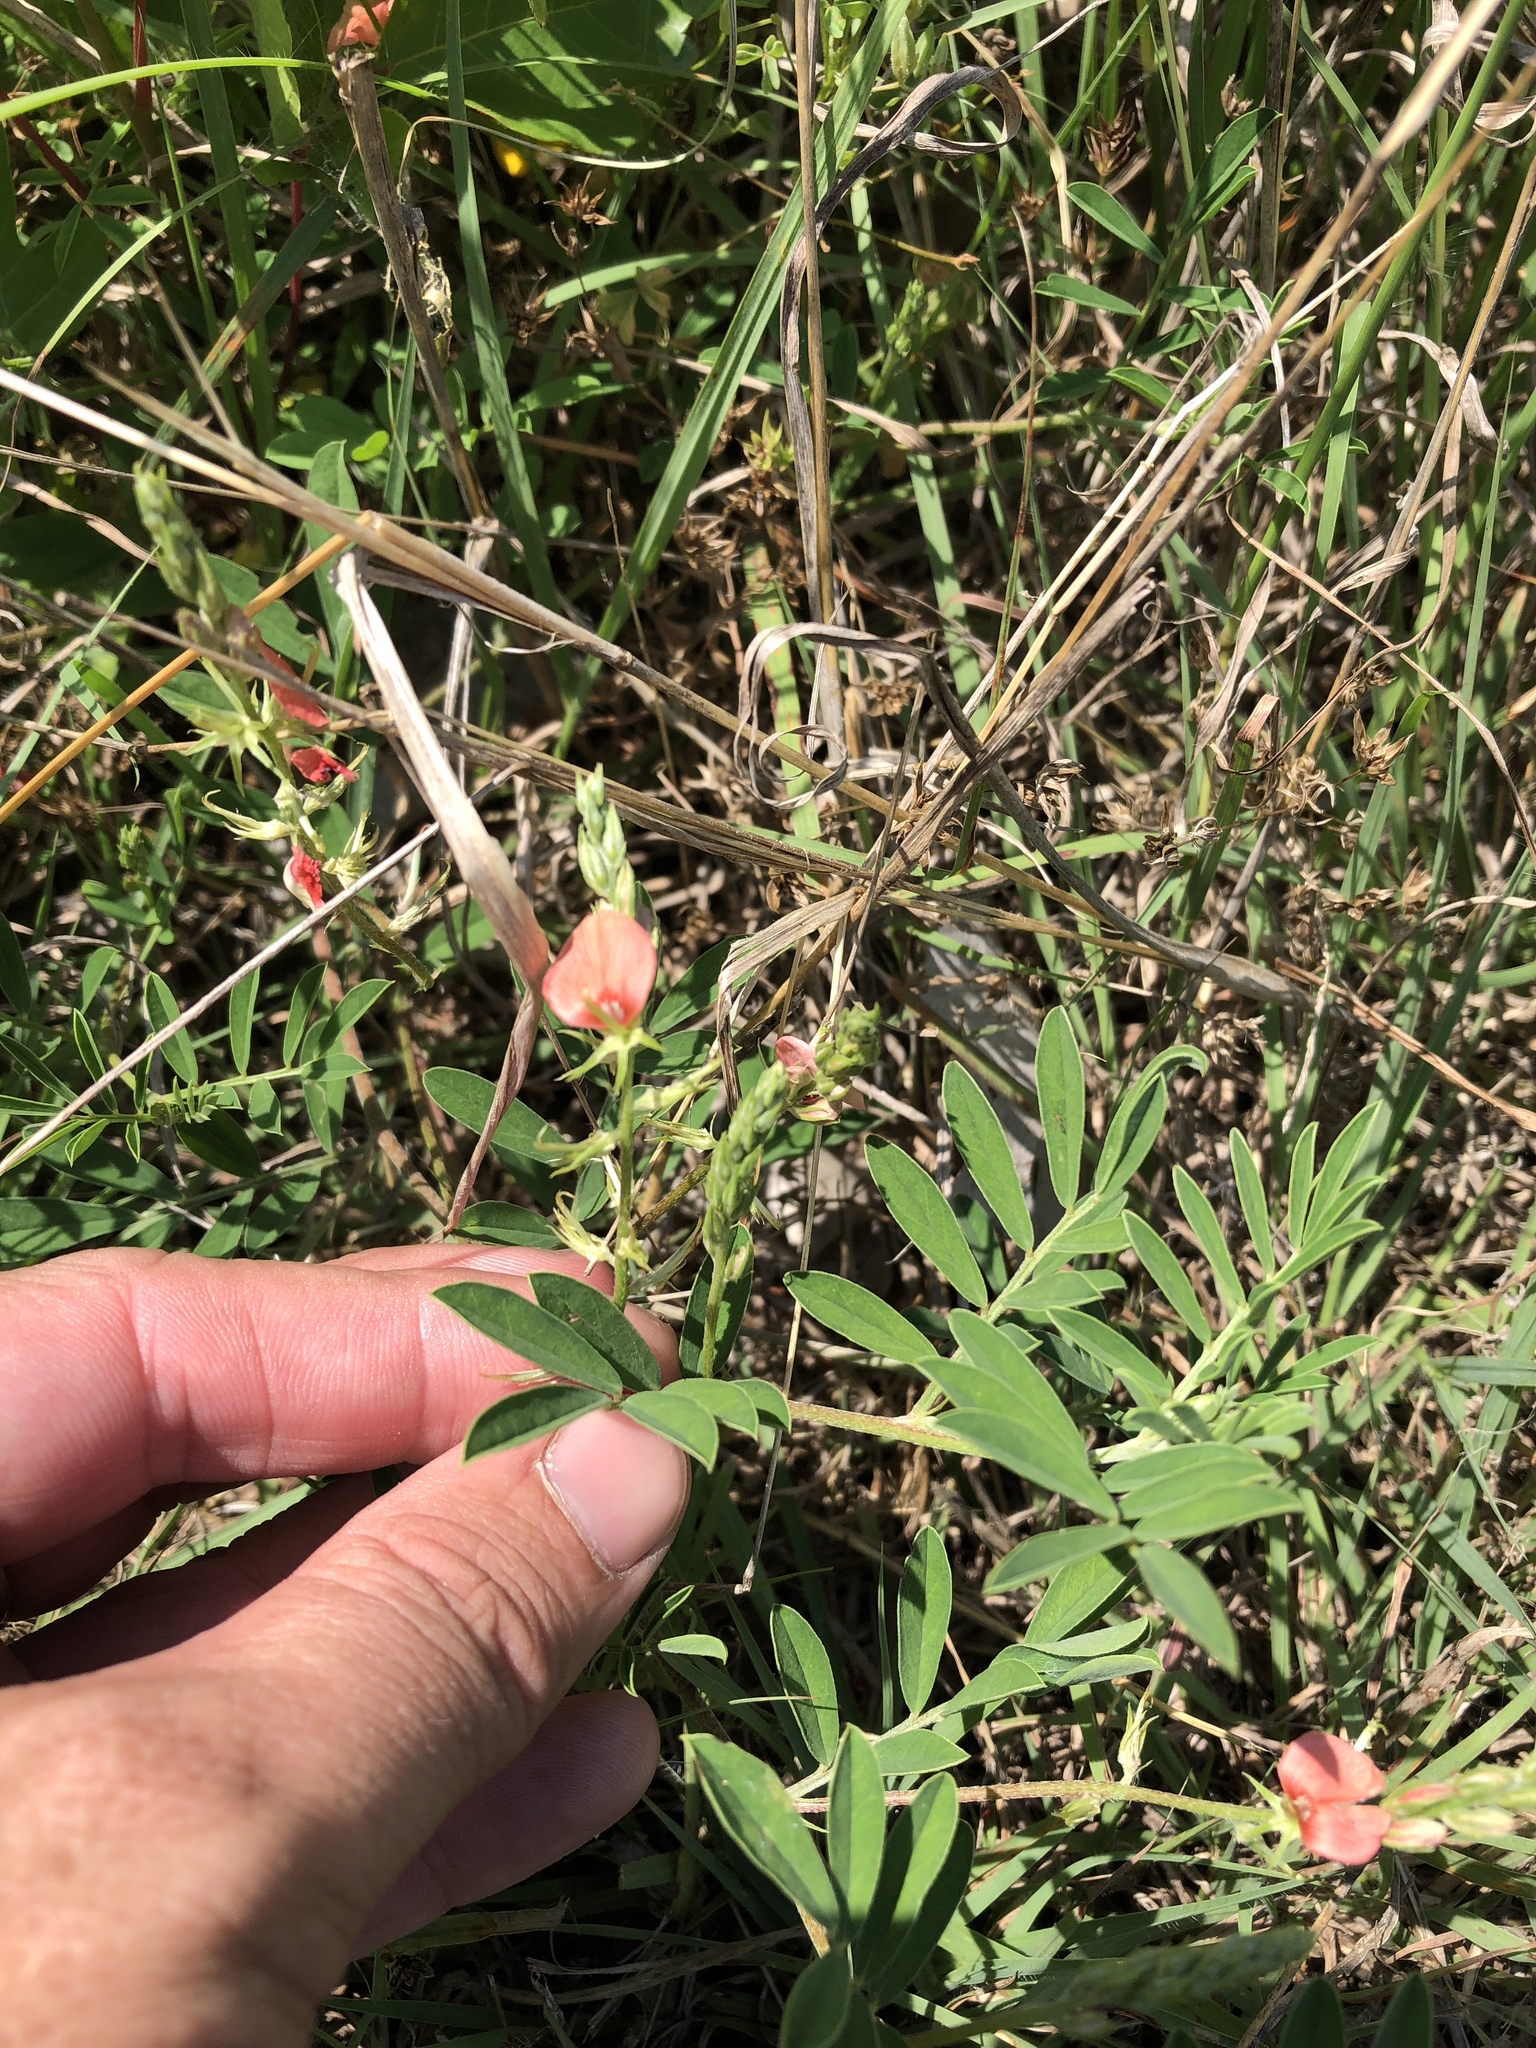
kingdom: Plantae
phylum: Tracheophyta
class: Magnoliopsida
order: Fabales
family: Fabaceae
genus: Indigofera
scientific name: Indigofera miniata
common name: Coast indigo
